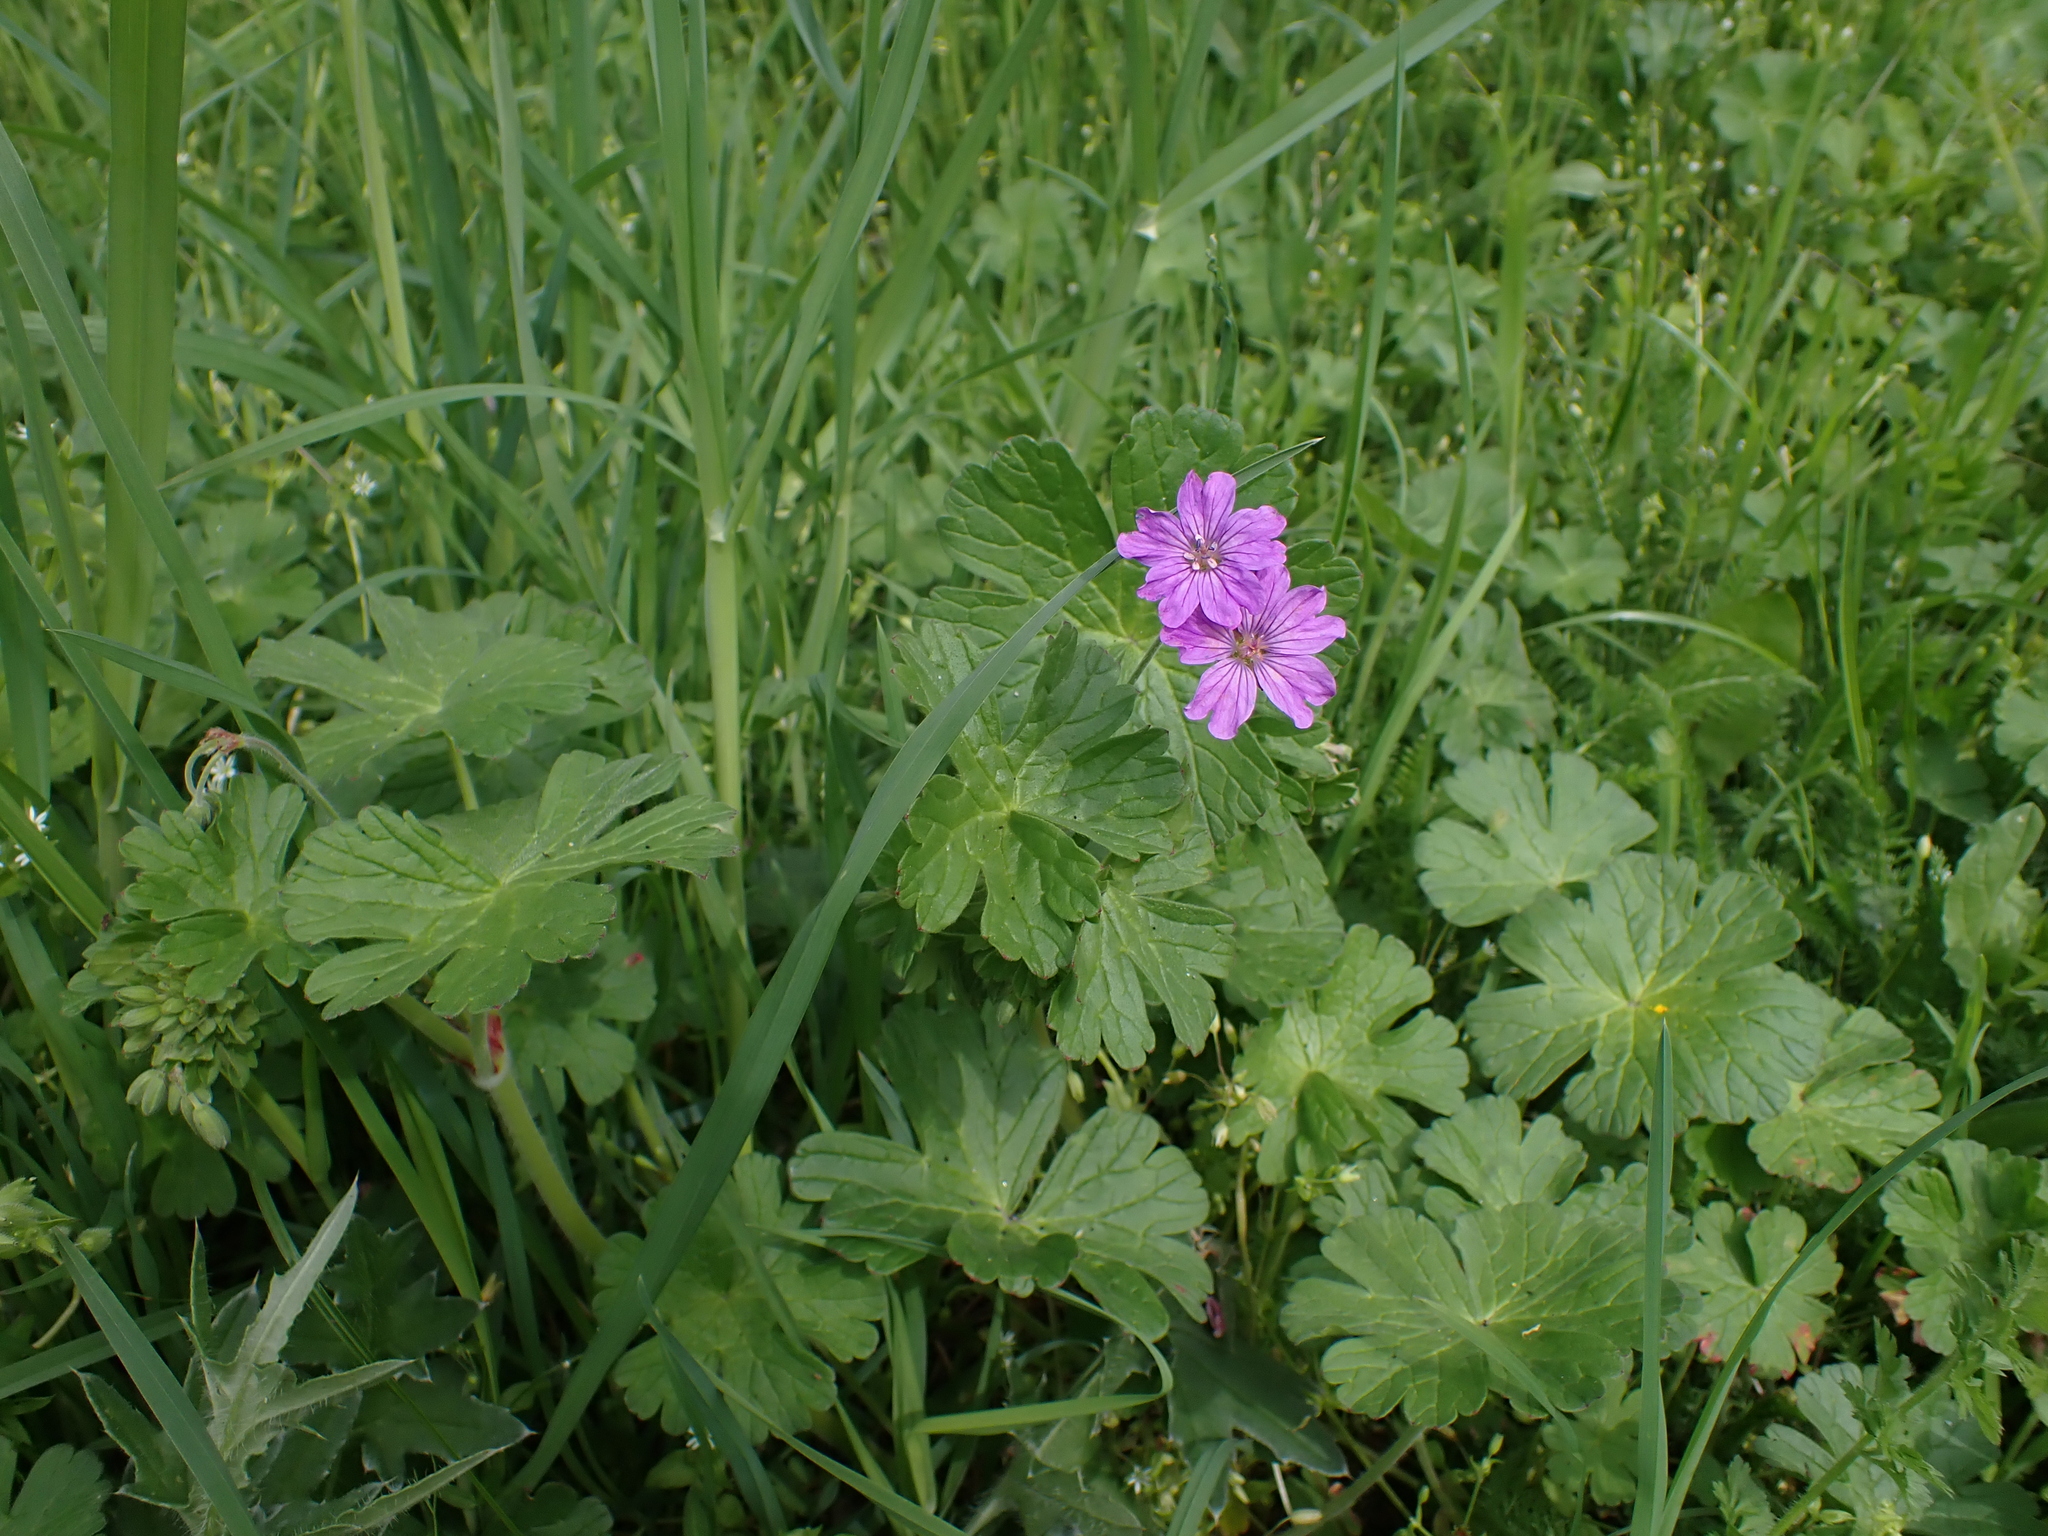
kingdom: Plantae
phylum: Tracheophyta
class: Magnoliopsida
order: Geraniales
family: Geraniaceae
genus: Geranium
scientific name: Geranium pyrenaicum
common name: Hedgerow crane's-bill
